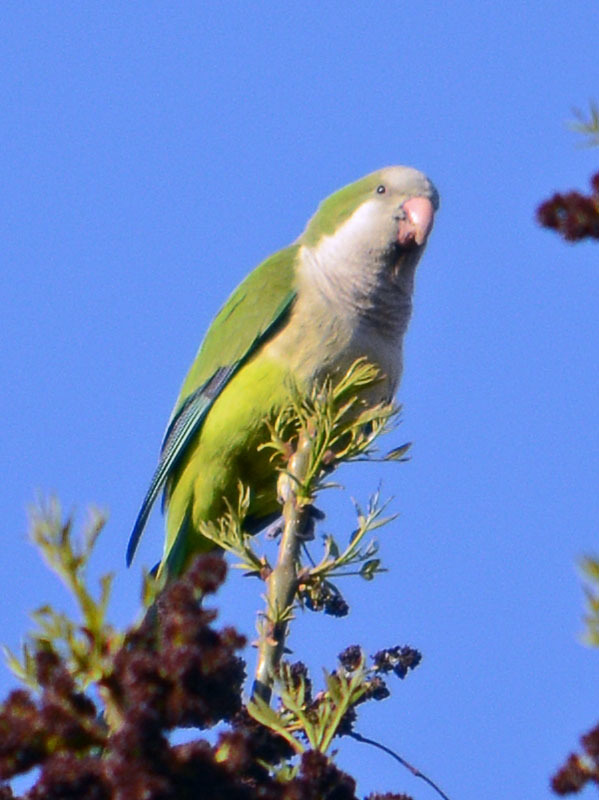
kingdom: Animalia
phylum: Chordata
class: Aves
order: Psittaciformes
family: Psittacidae
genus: Myiopsitta
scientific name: Myiopsitta monachus
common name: Monk parakeet
